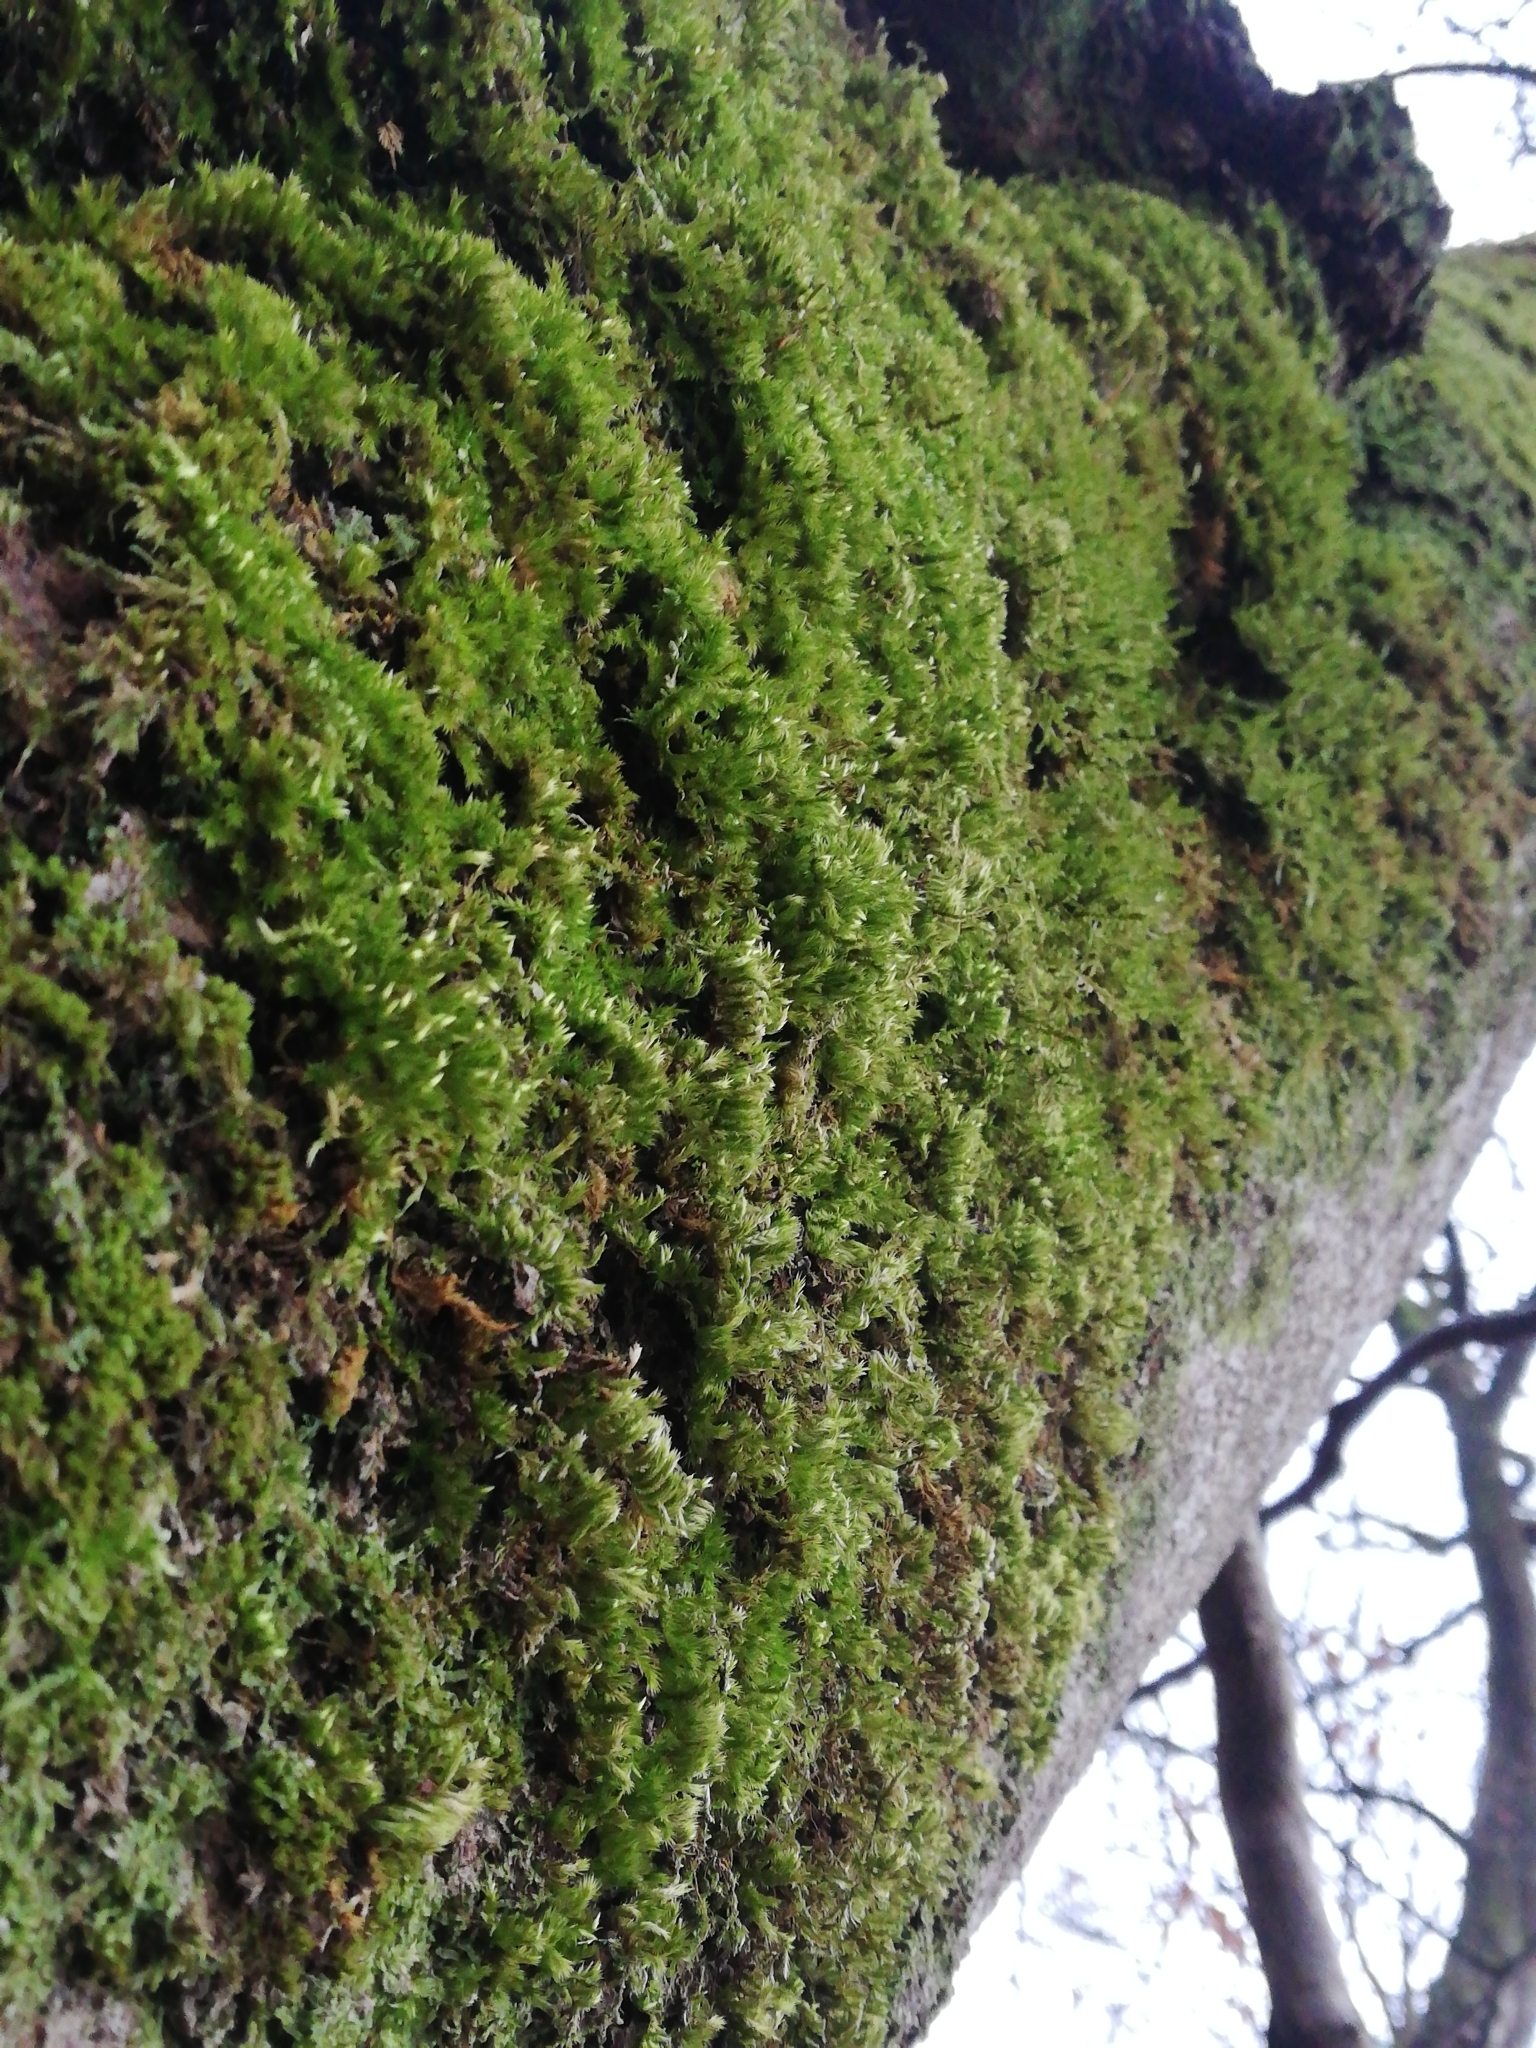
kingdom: Plantae
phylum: Bryophyta
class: Bryopsida
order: Hypnales
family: Brachytheciaceae
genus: Homalothecium
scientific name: Homalothecium sericeum
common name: Silky wall feather-moss
